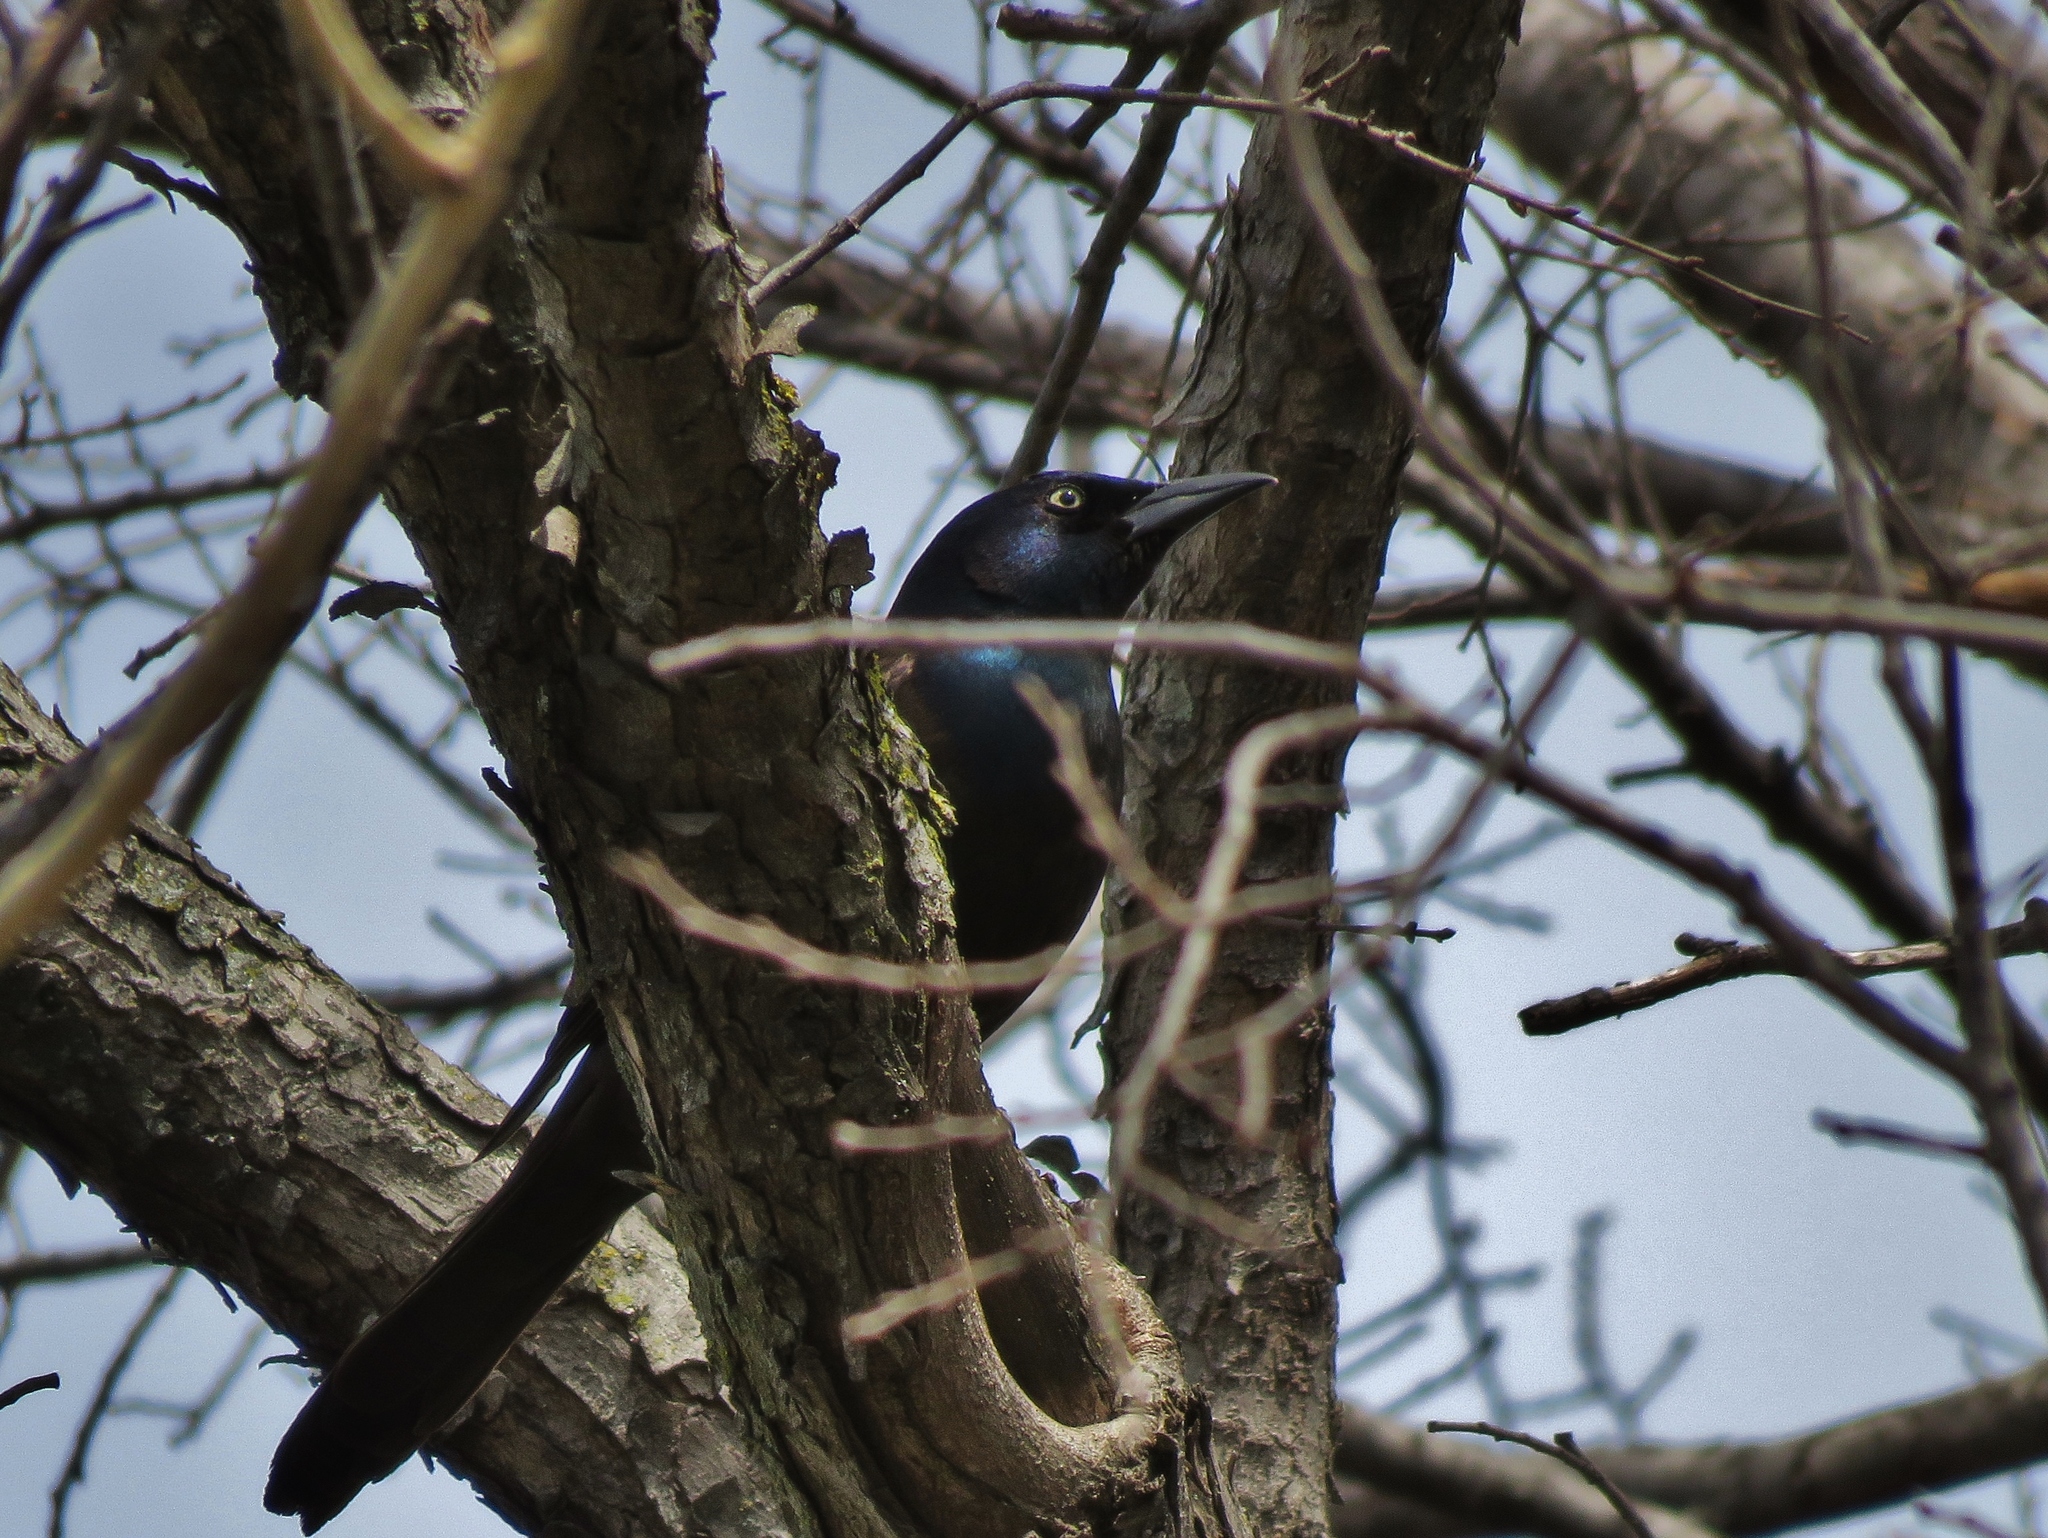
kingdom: Animalia
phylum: Chordata
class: Aves
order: Passeriformes
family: Icteridae
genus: Quiscalus
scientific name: Quiscalus quiscula
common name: Common grackle
